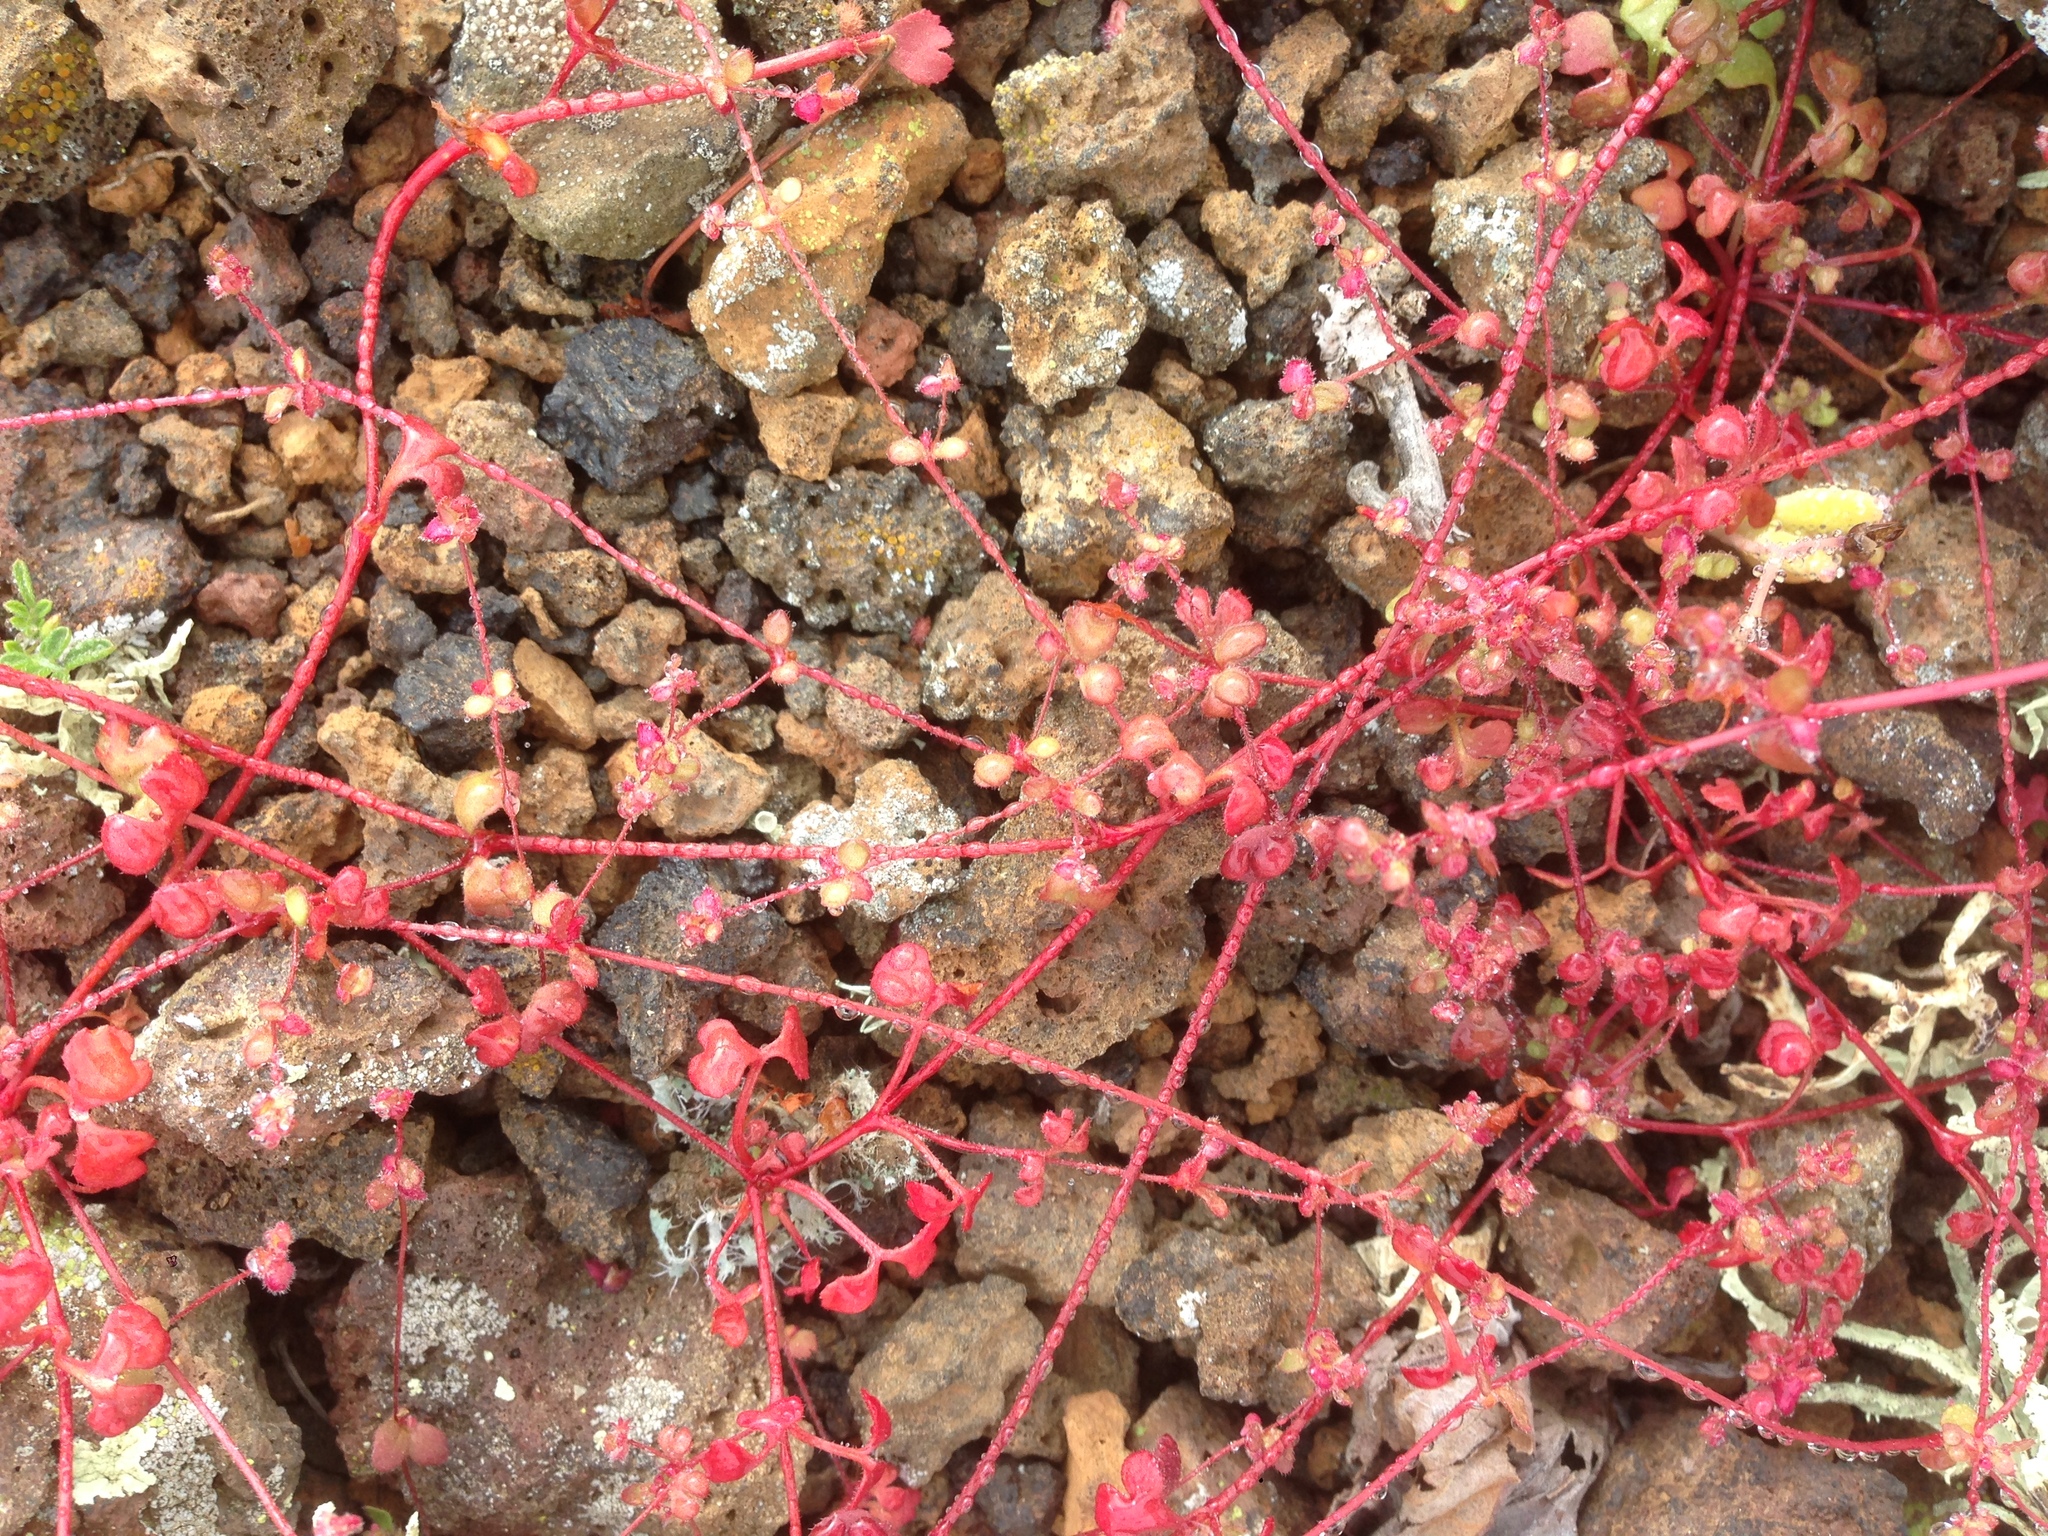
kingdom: Plantae
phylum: Tracheophyta
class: Magnoliopsida
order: Caryophyllales
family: Polygonaceae
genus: Pterostegia
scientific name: Pterostegia drymarioides
